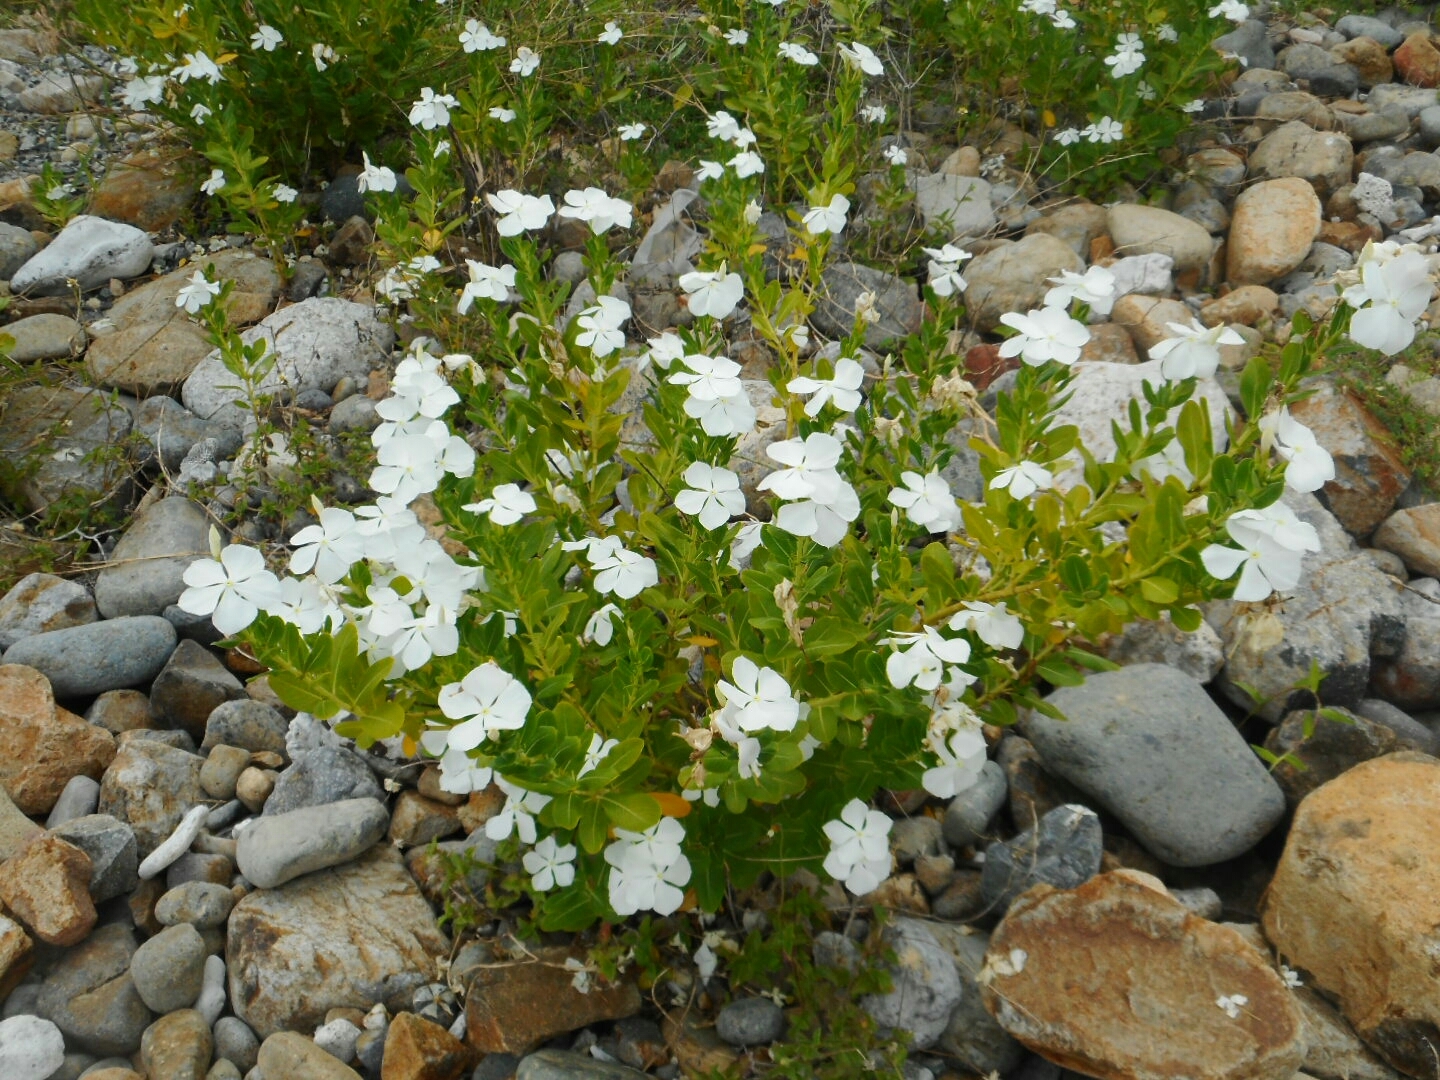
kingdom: Plantae
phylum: Tracheophyta
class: Magnoliopsida
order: Gentianales
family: Apocynaceae
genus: Catharanthus
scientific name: Catharanthus roseus
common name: Madagascar periwinkle
